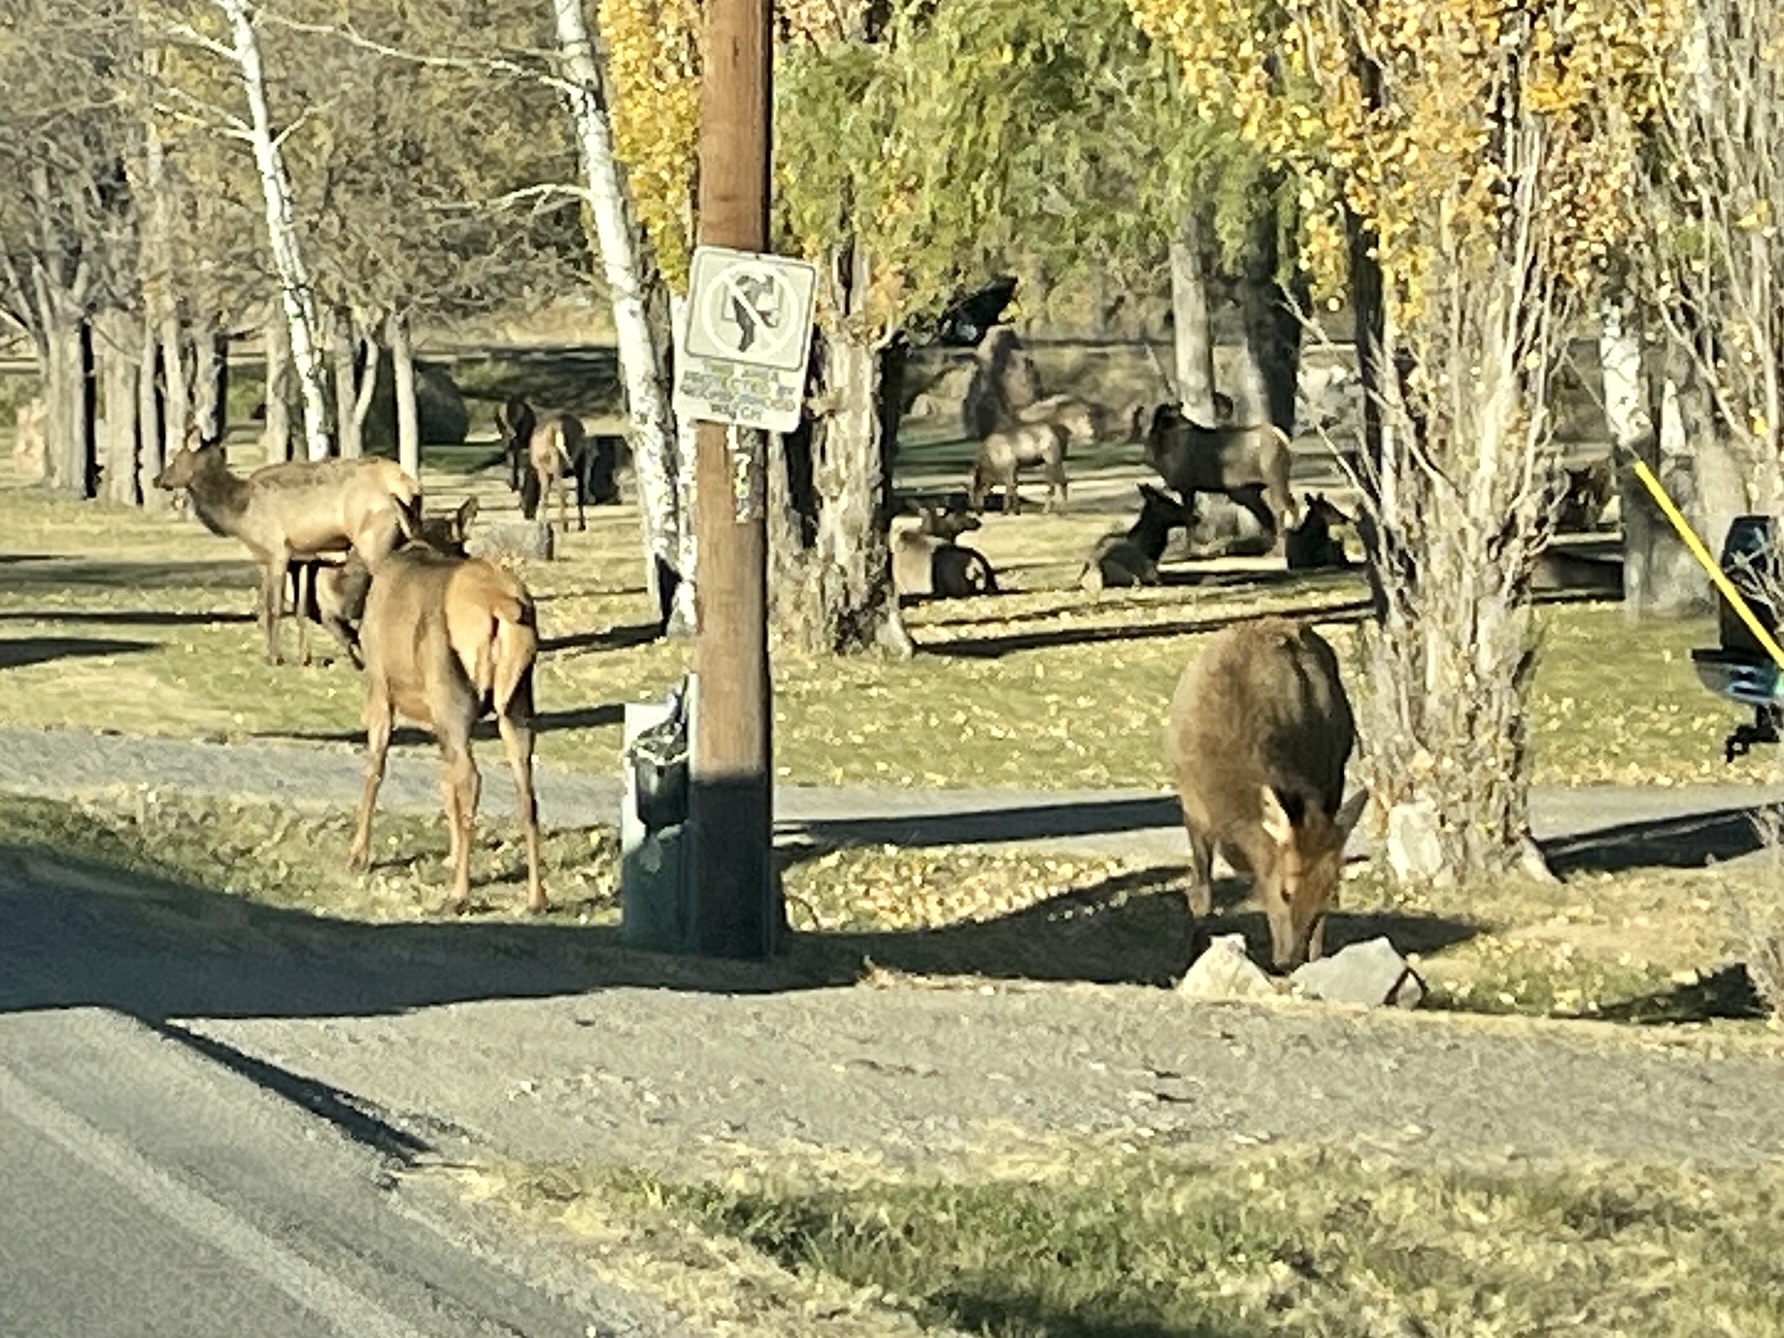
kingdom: Animalia
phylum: Chordata
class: Mammalia
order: Artiodactyla
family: Cervidae
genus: Cervus
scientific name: Cervus elaphus
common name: Red deer
